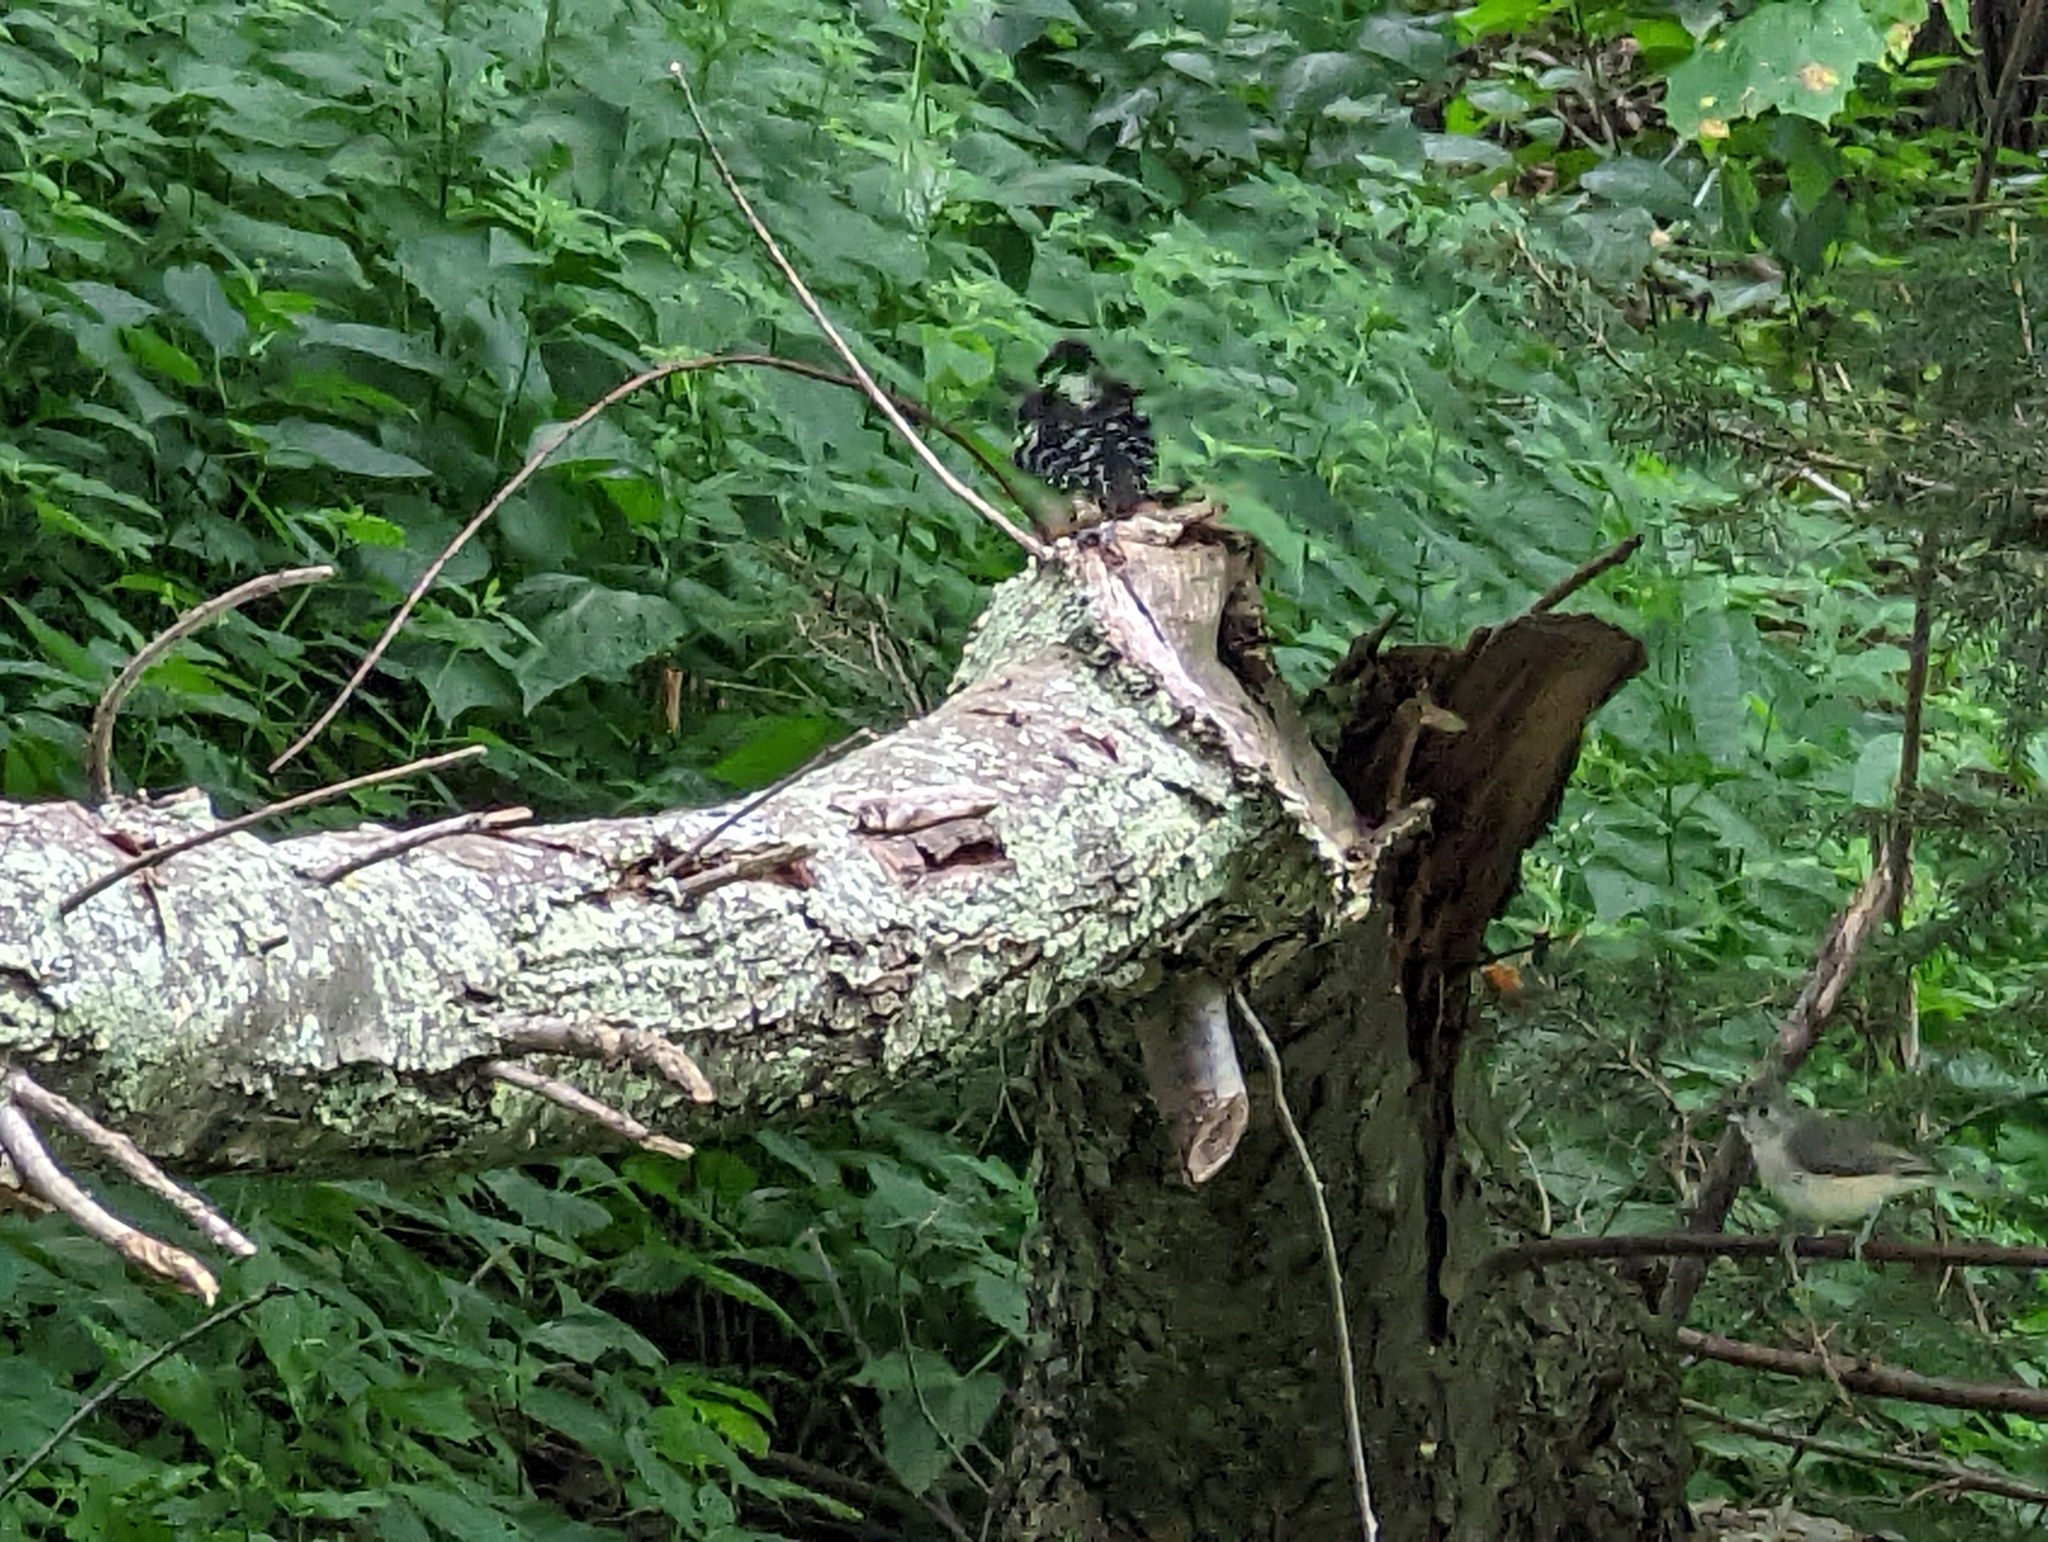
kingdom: Animalia
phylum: Chordata
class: Aves
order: Piciformes
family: Picidae
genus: Leuconotopicus
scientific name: Leuconotopicus villosus
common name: Hairy woodpecker
